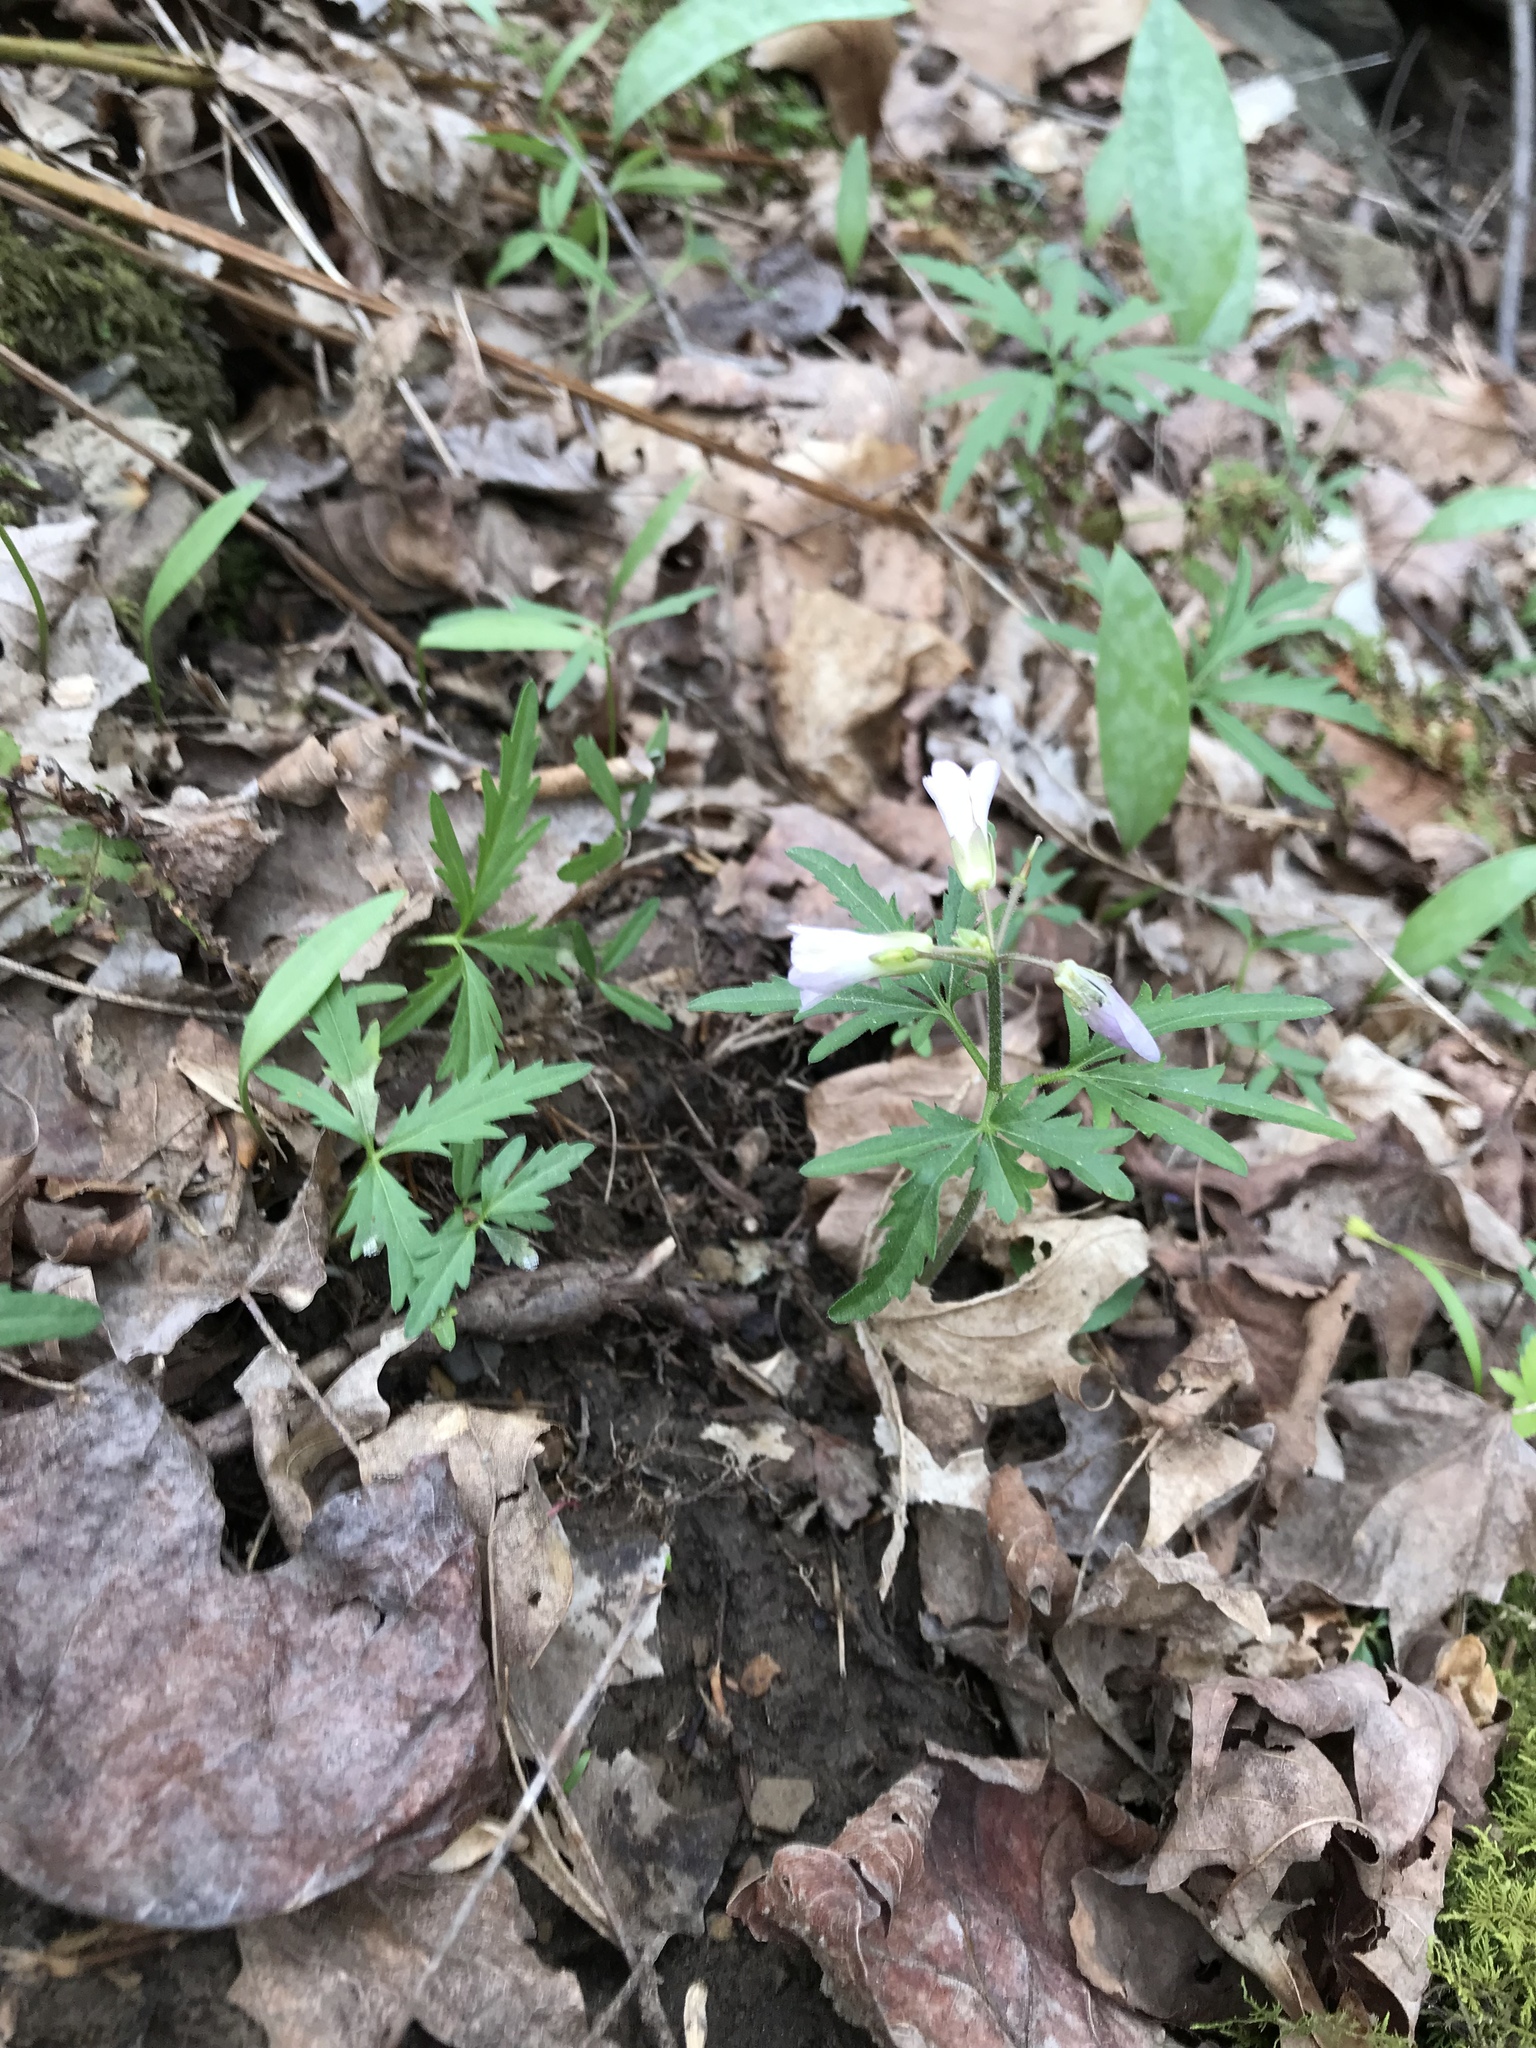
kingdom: Plantae
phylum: Tracheophyta
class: Magnoliopsida
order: Brassicales
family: Brassicaceae
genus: Cardamine
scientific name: Cardamine concatenata
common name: Cut-leaf toothcup
